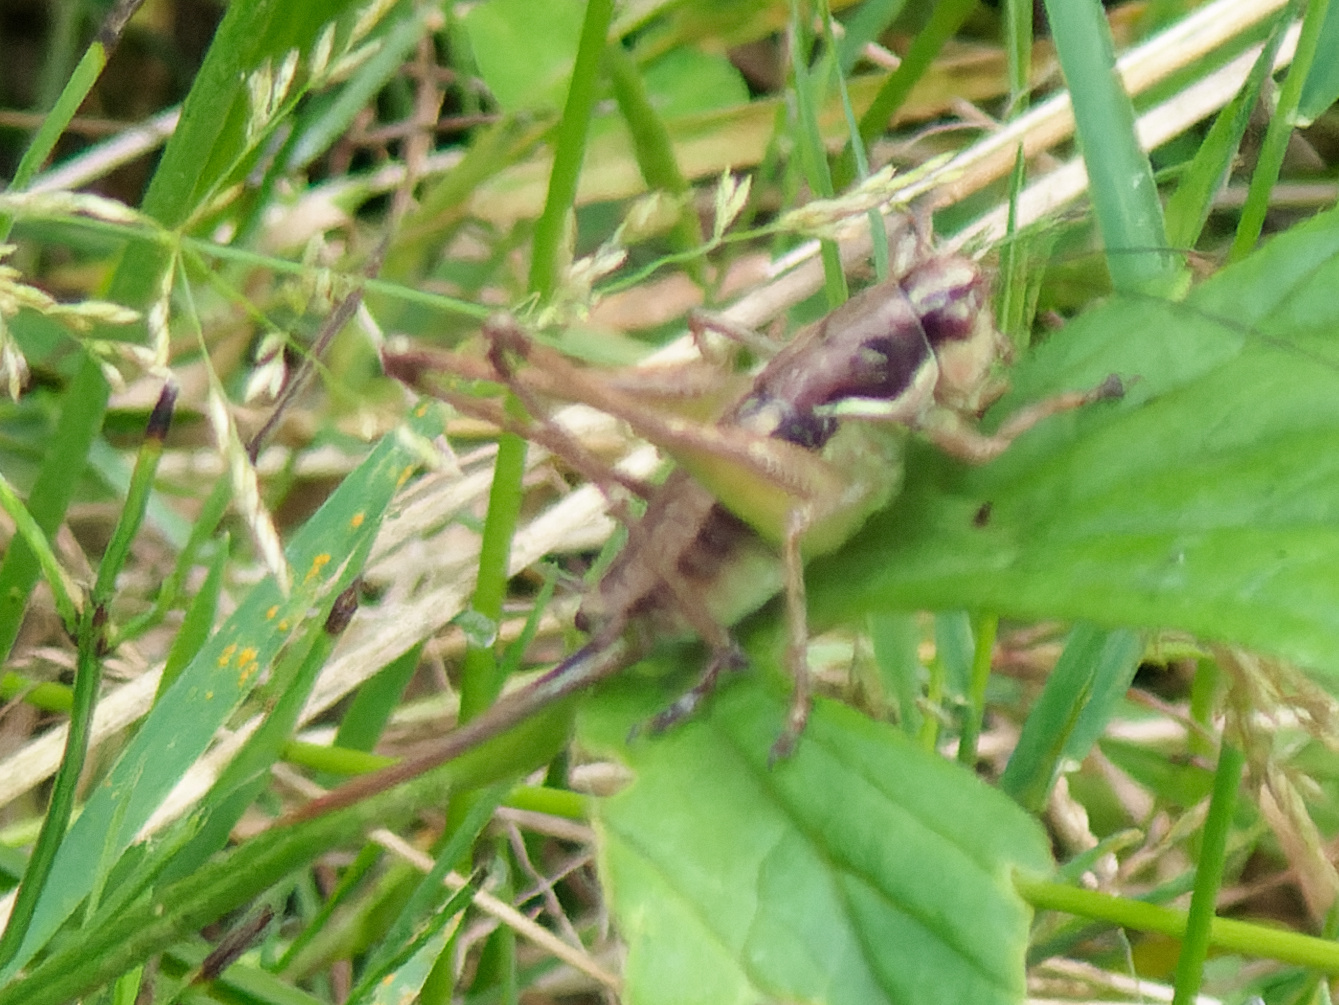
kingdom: Animalia
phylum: Arthropoda
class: Insecta
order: Orthoptera
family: Tettigoniidae
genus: Pachytrachis
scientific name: Pachytrachis gracilis
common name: Graceful bush-cricket
